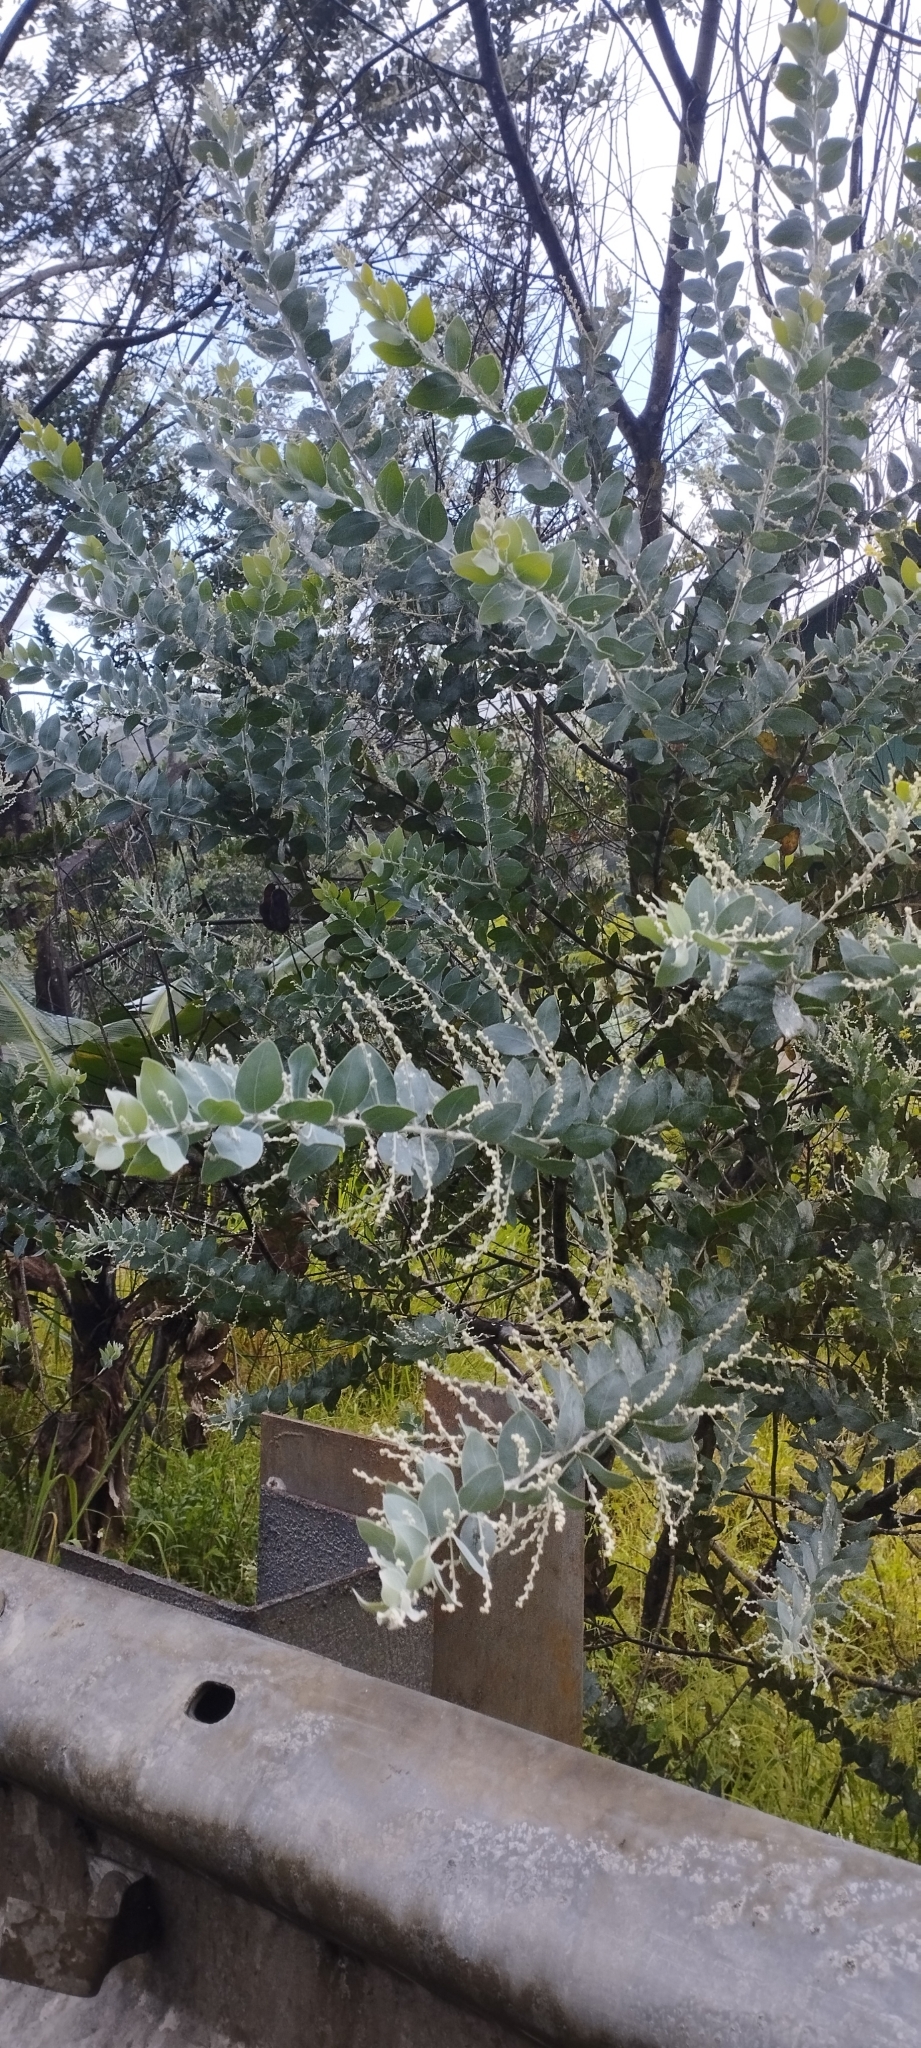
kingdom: Plantae
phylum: Tracheophyta
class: Magnoliopsida
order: Fabales
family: Fabaceae
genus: Acacia
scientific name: Acacia podalyriifolia
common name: Pearl wattle
